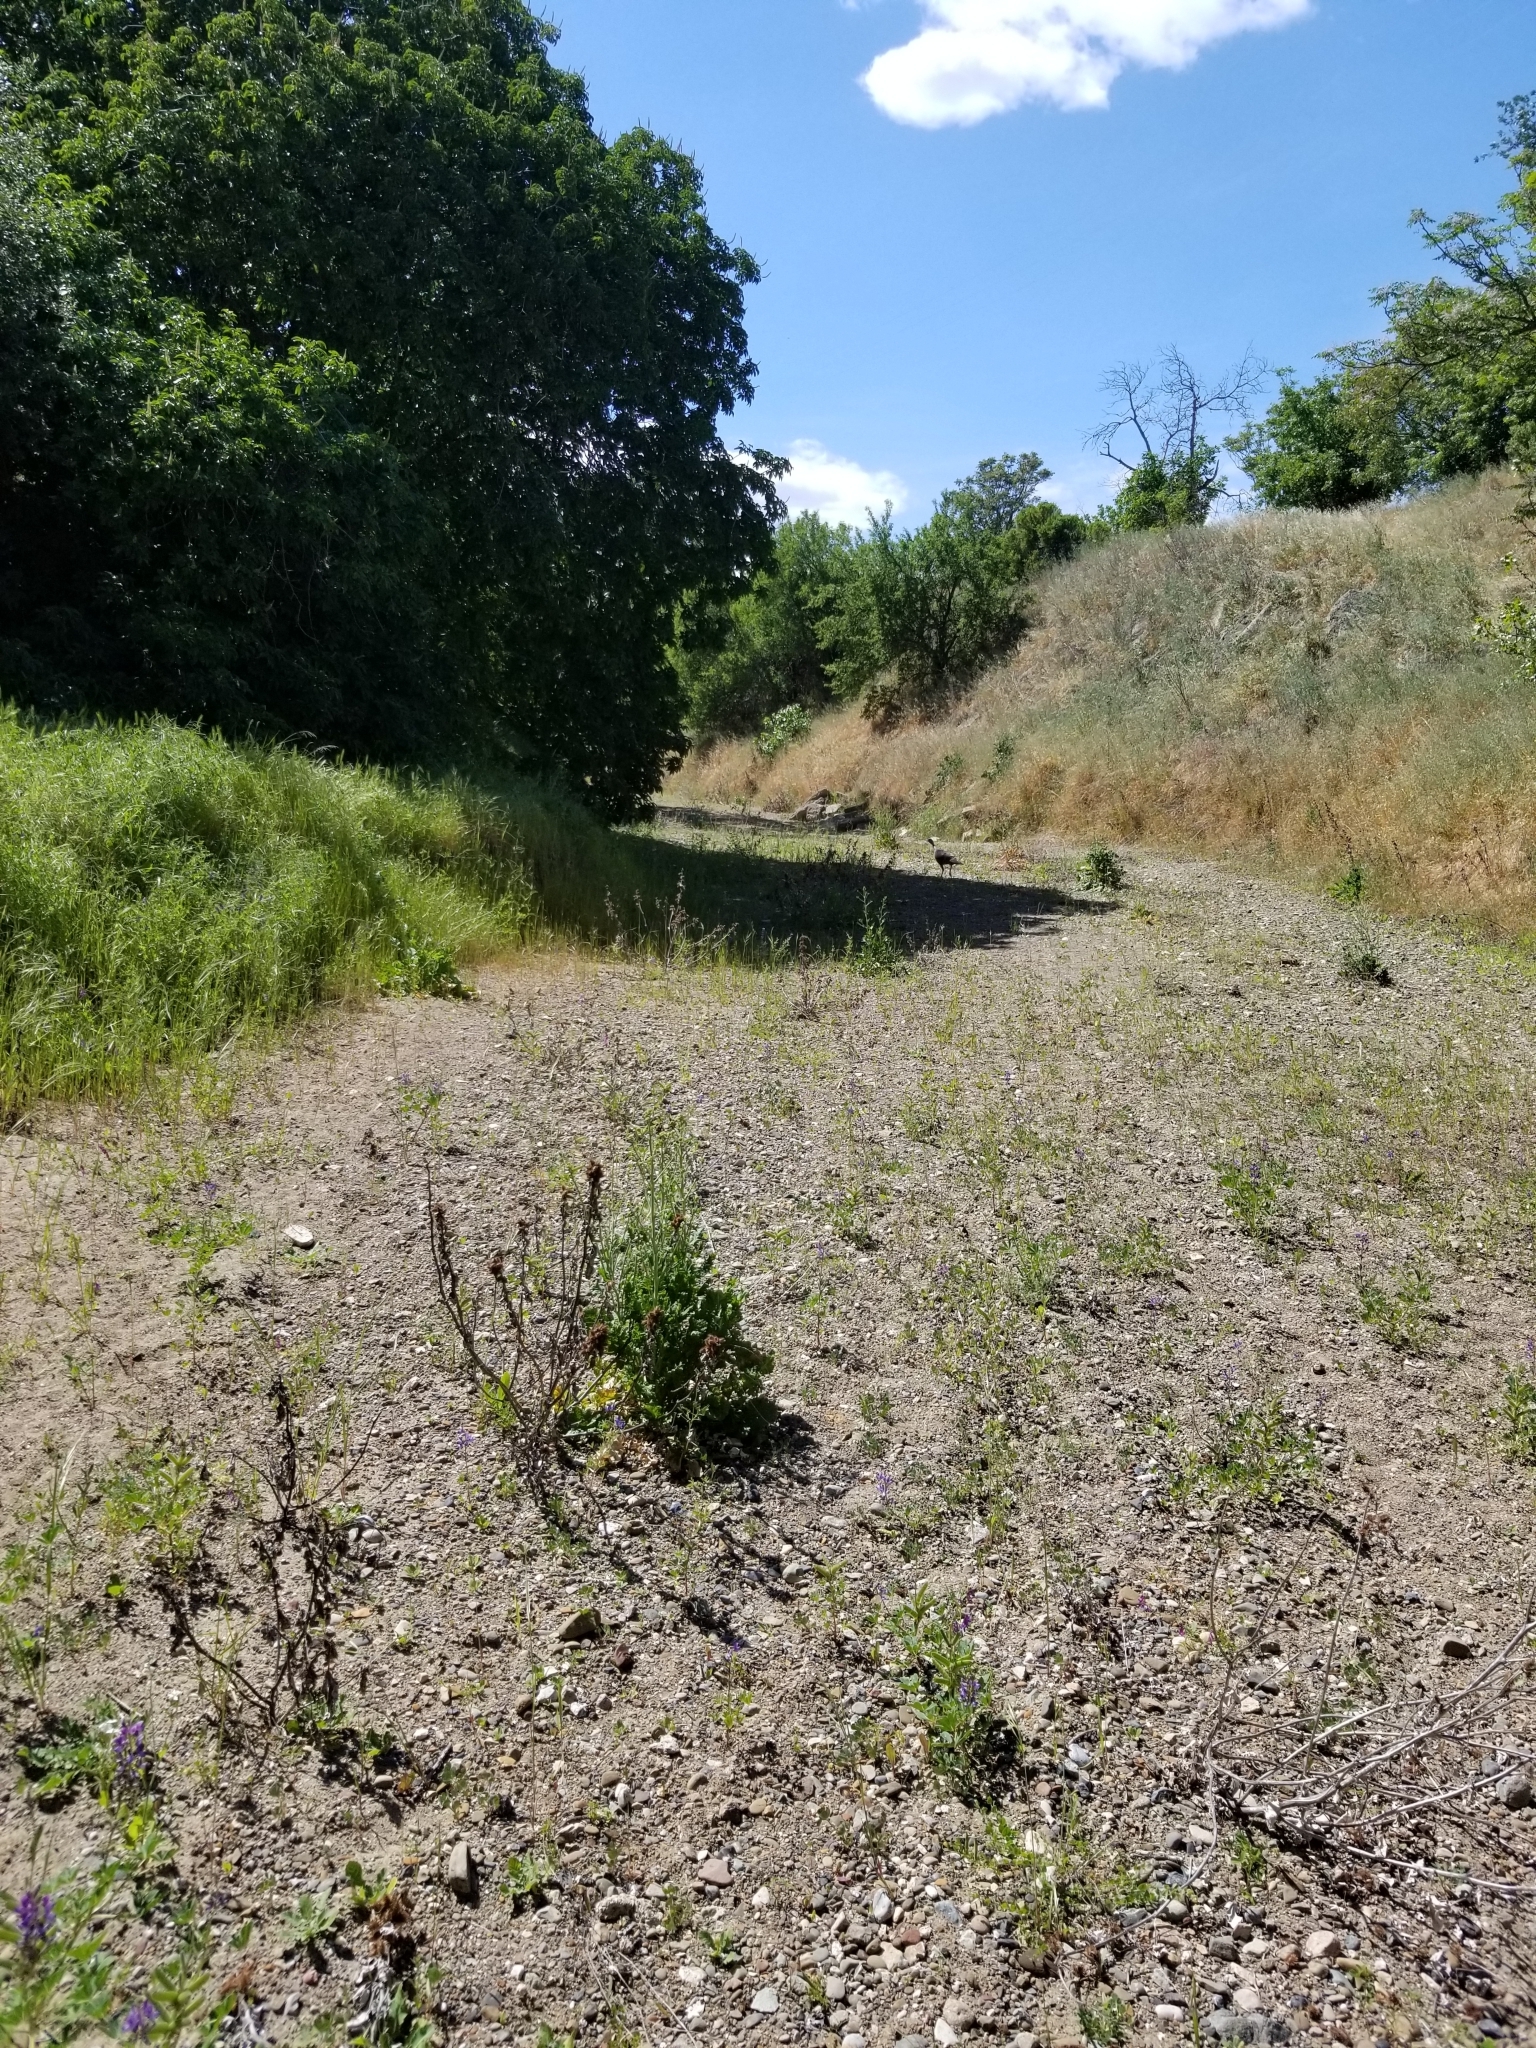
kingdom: Animalia
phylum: Chordata
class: Aves
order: Galliformes
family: Phasianidae
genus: Meleagris
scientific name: Meleagris gallopavo
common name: Wild turkey
